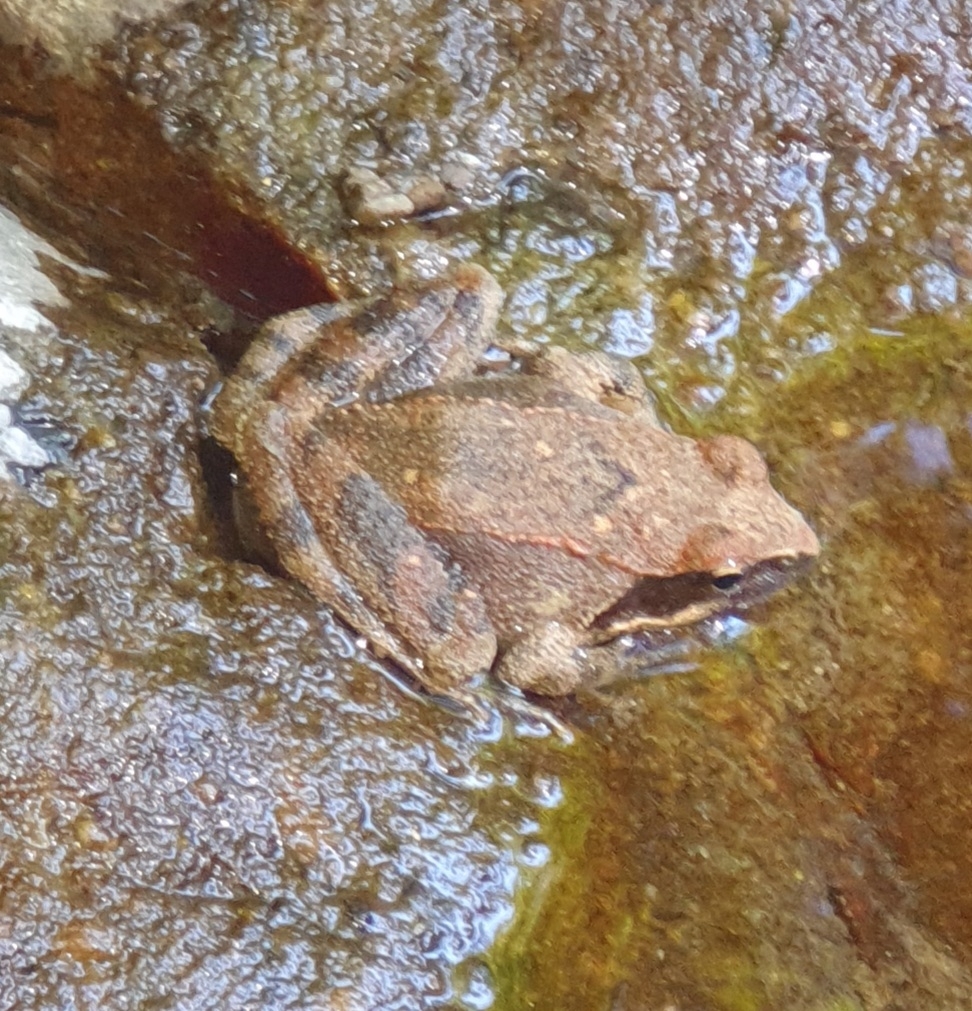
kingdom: Animalia
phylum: Chordata
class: Amphibia
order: Anura
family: Ranidae
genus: Rana
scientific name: Rana italica
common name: Italian stream frog
